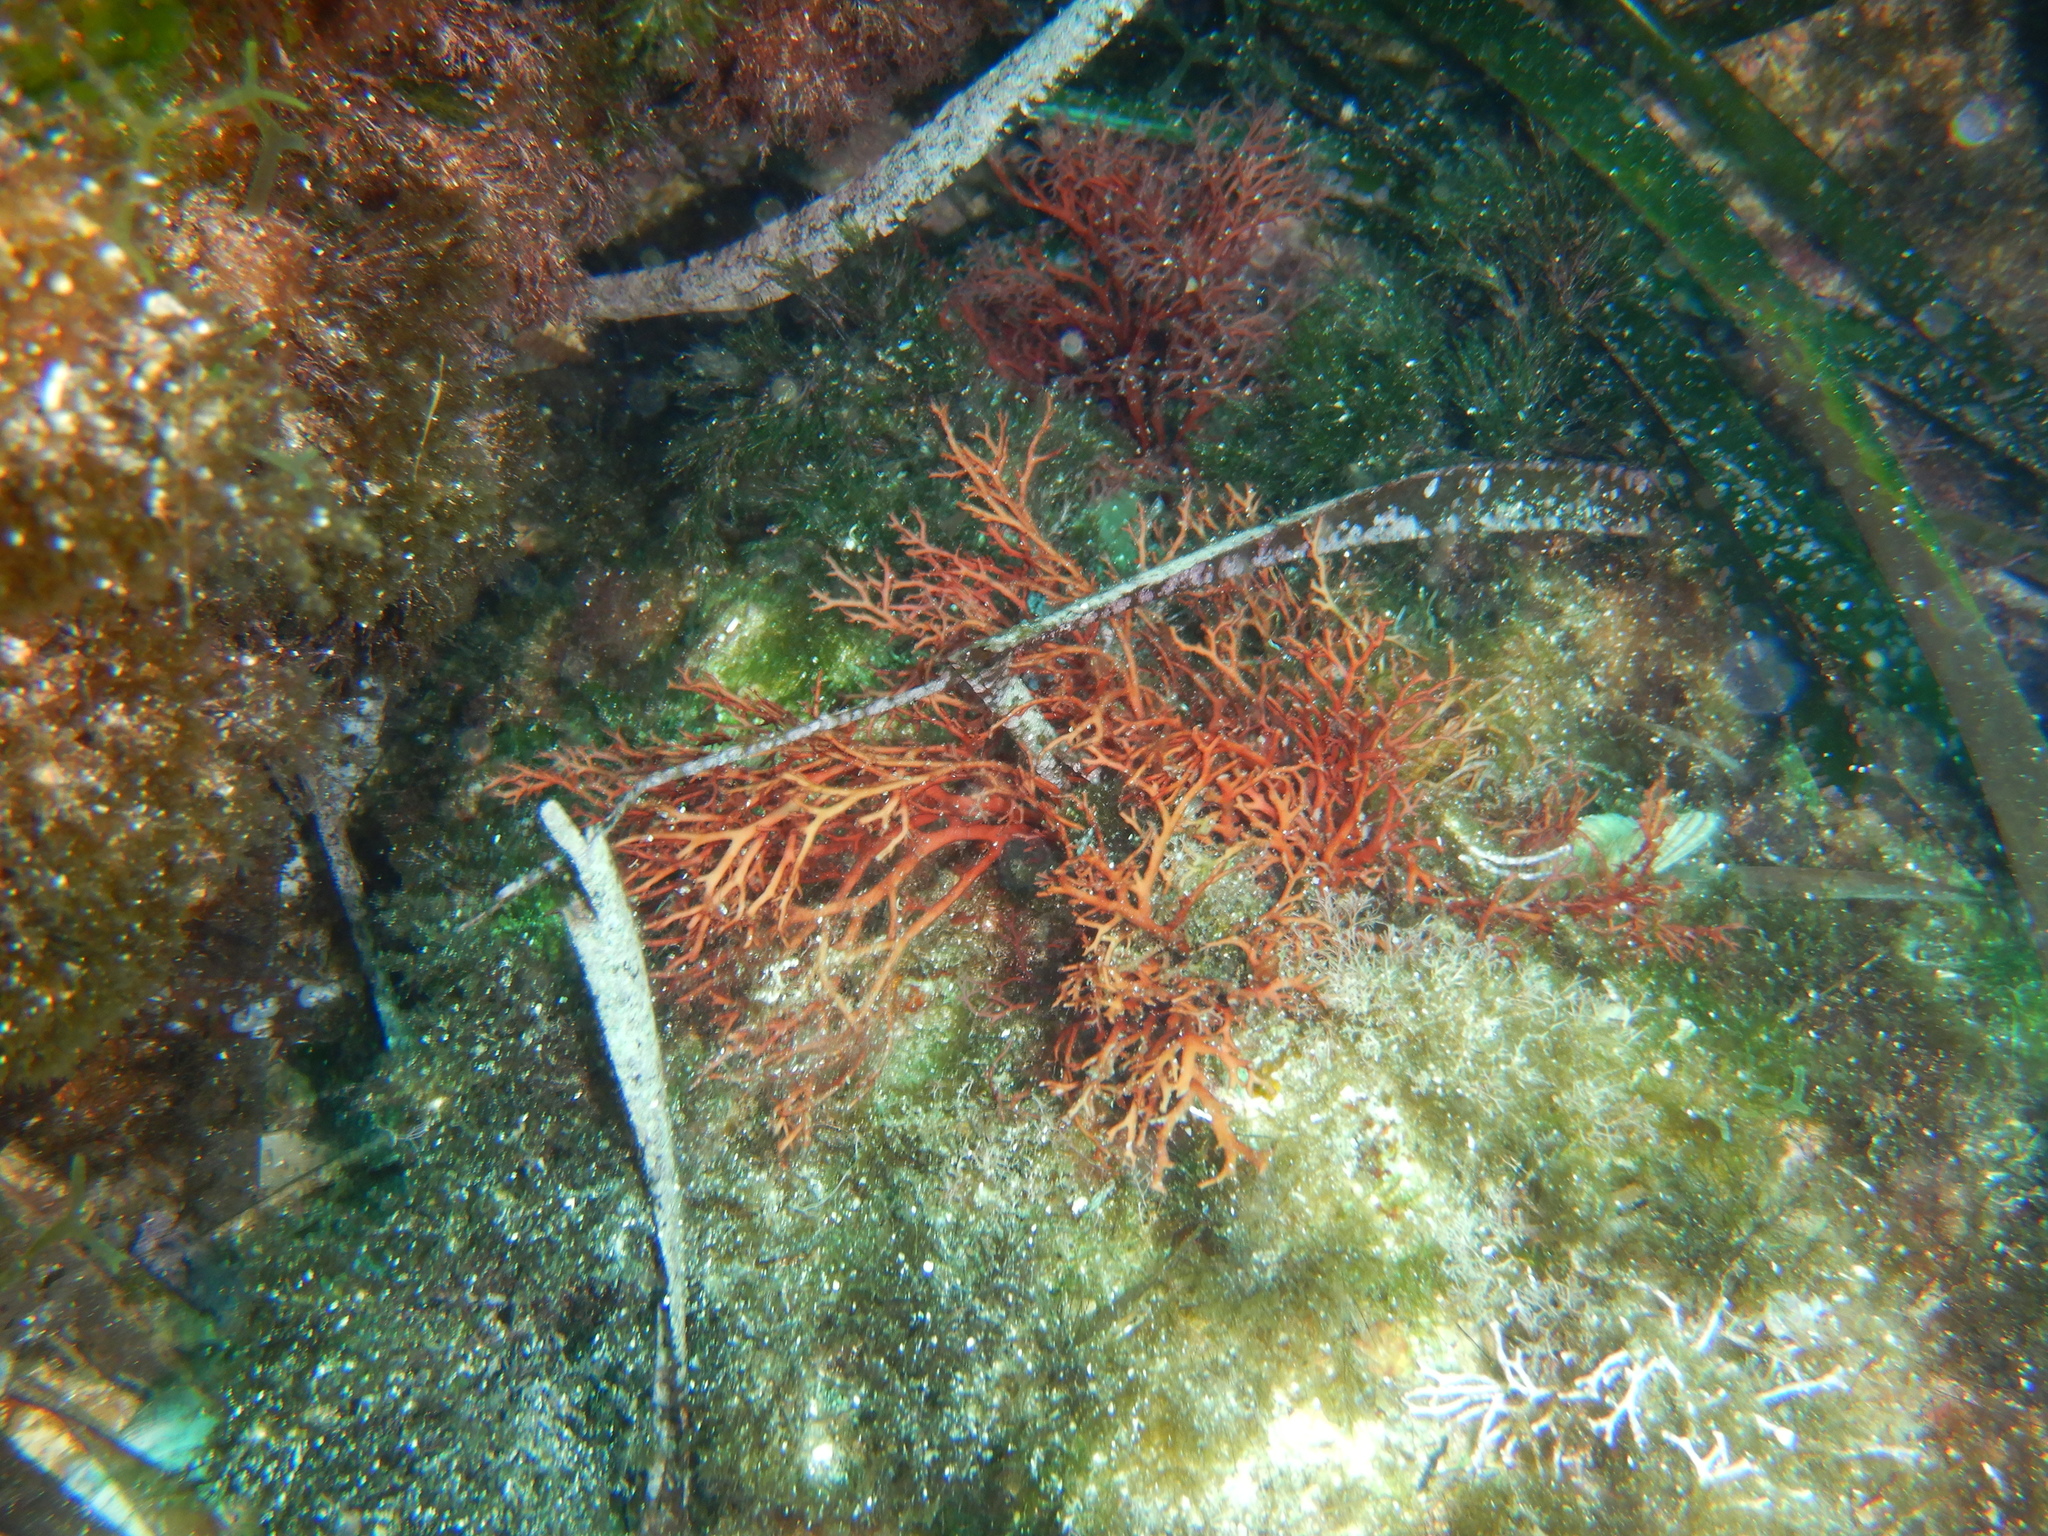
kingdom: Plantae
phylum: Rhodophyta
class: Florideophyceae
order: Gigartinales
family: Sphaerococcaceae
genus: Sphaerococcus
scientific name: Sphaerococcus coronopifolius
